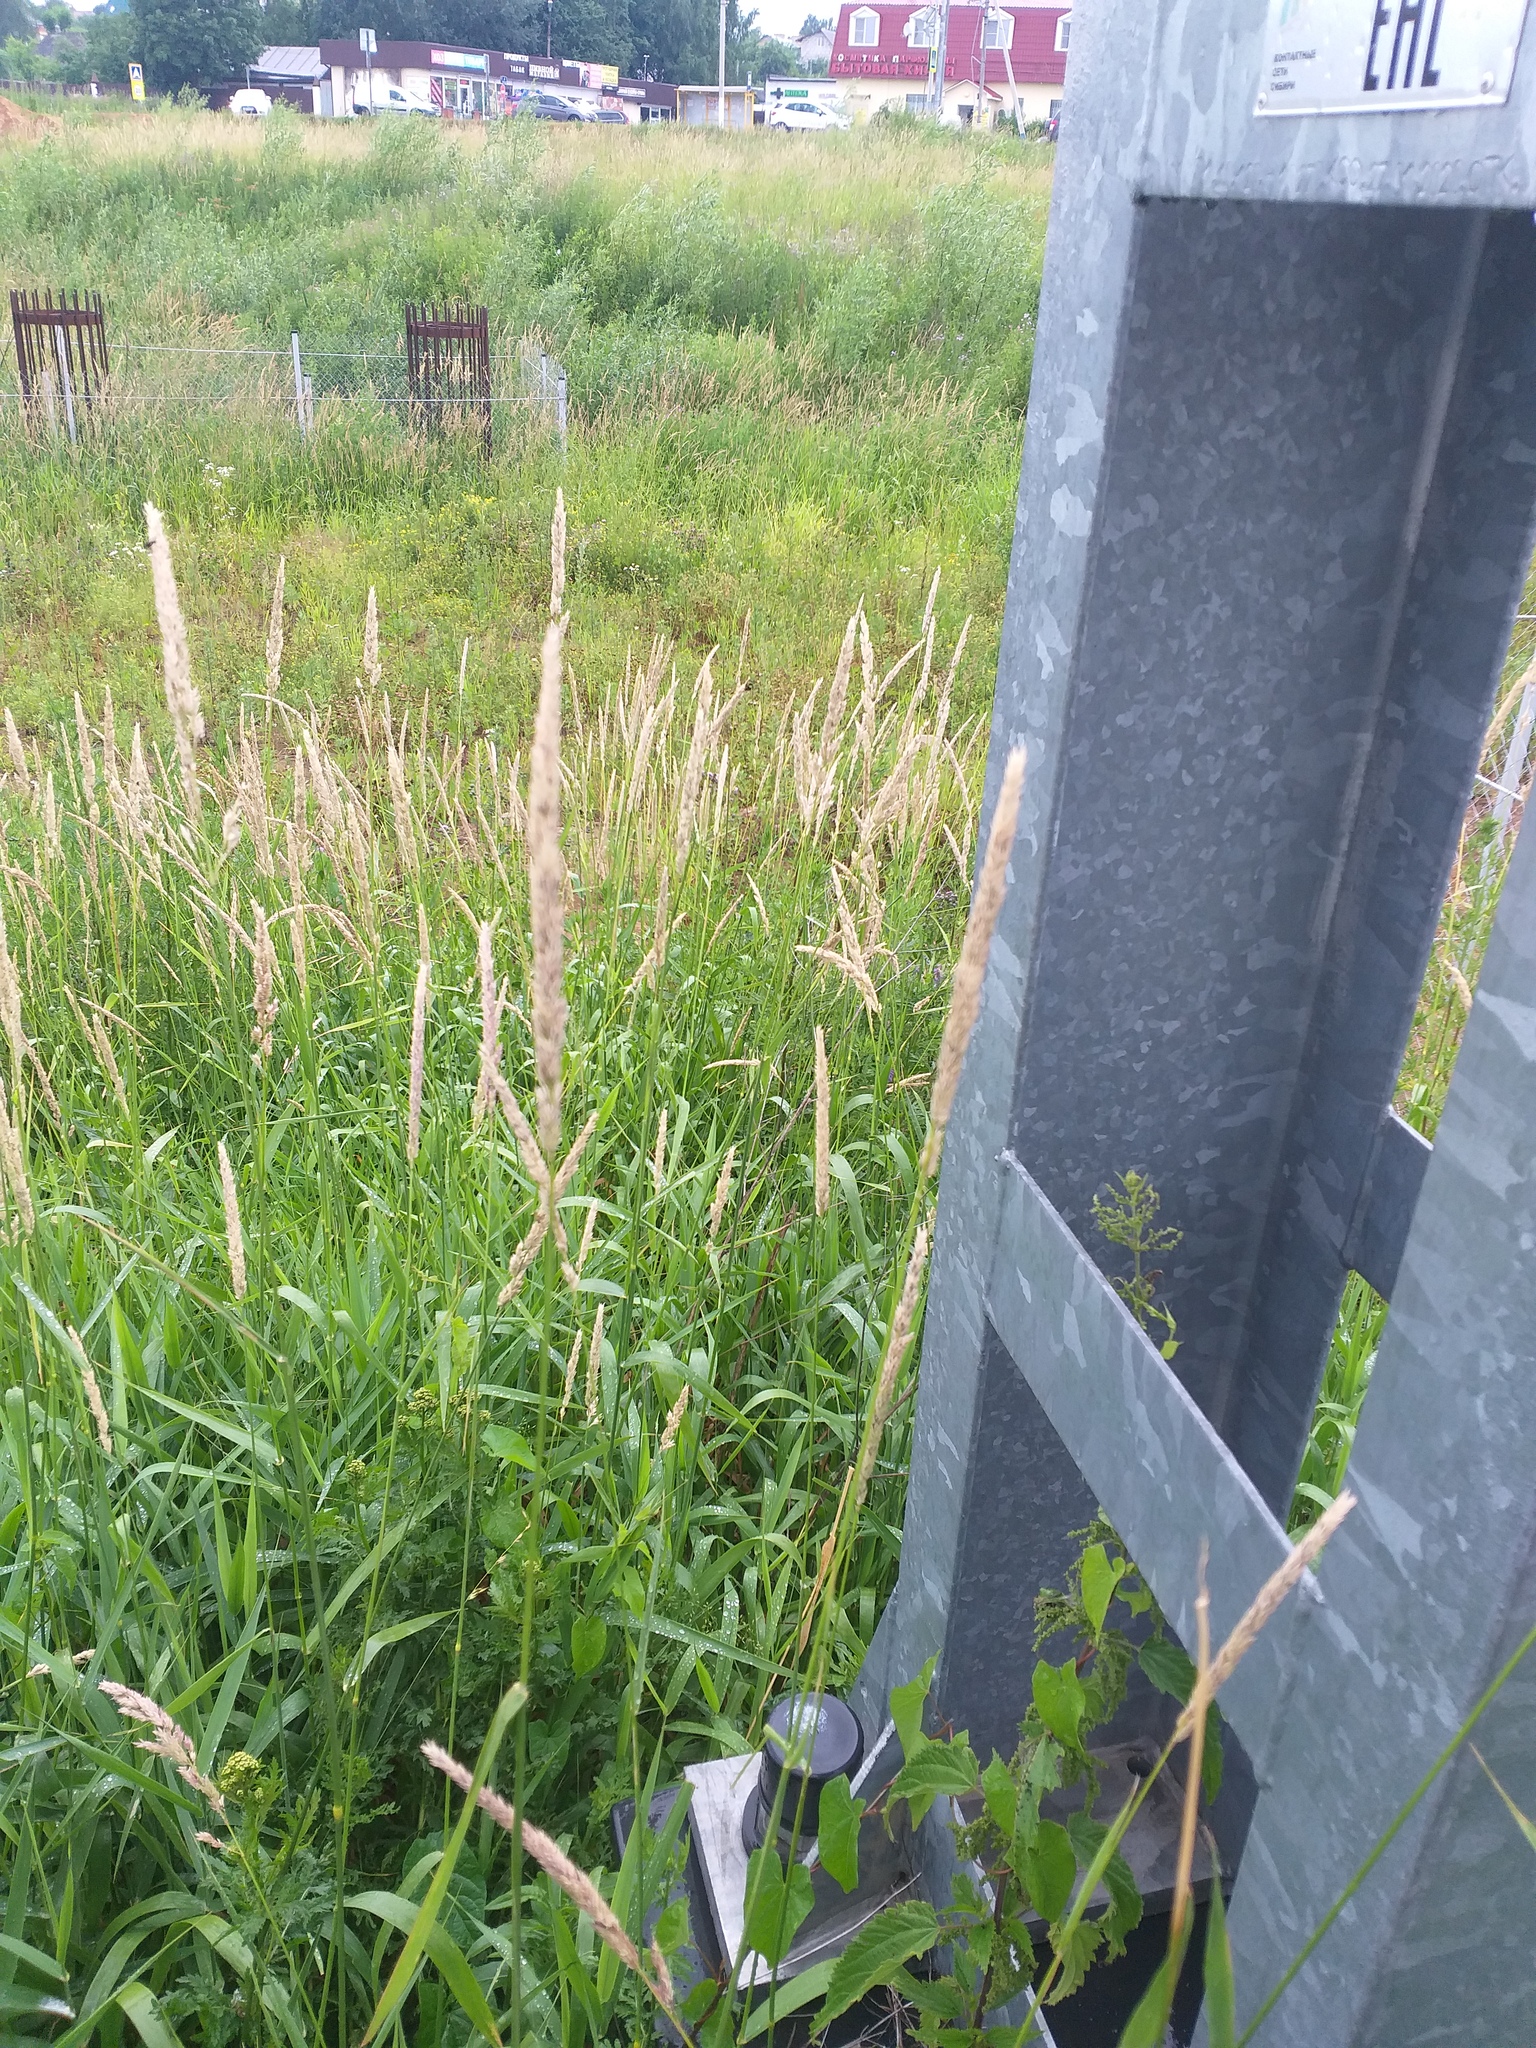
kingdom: Plantae
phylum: Tracheophyta
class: Liliopsida
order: Poales
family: Poaceae
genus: Phalaris
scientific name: Phalaris arundinacea
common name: Reed canary-grass
